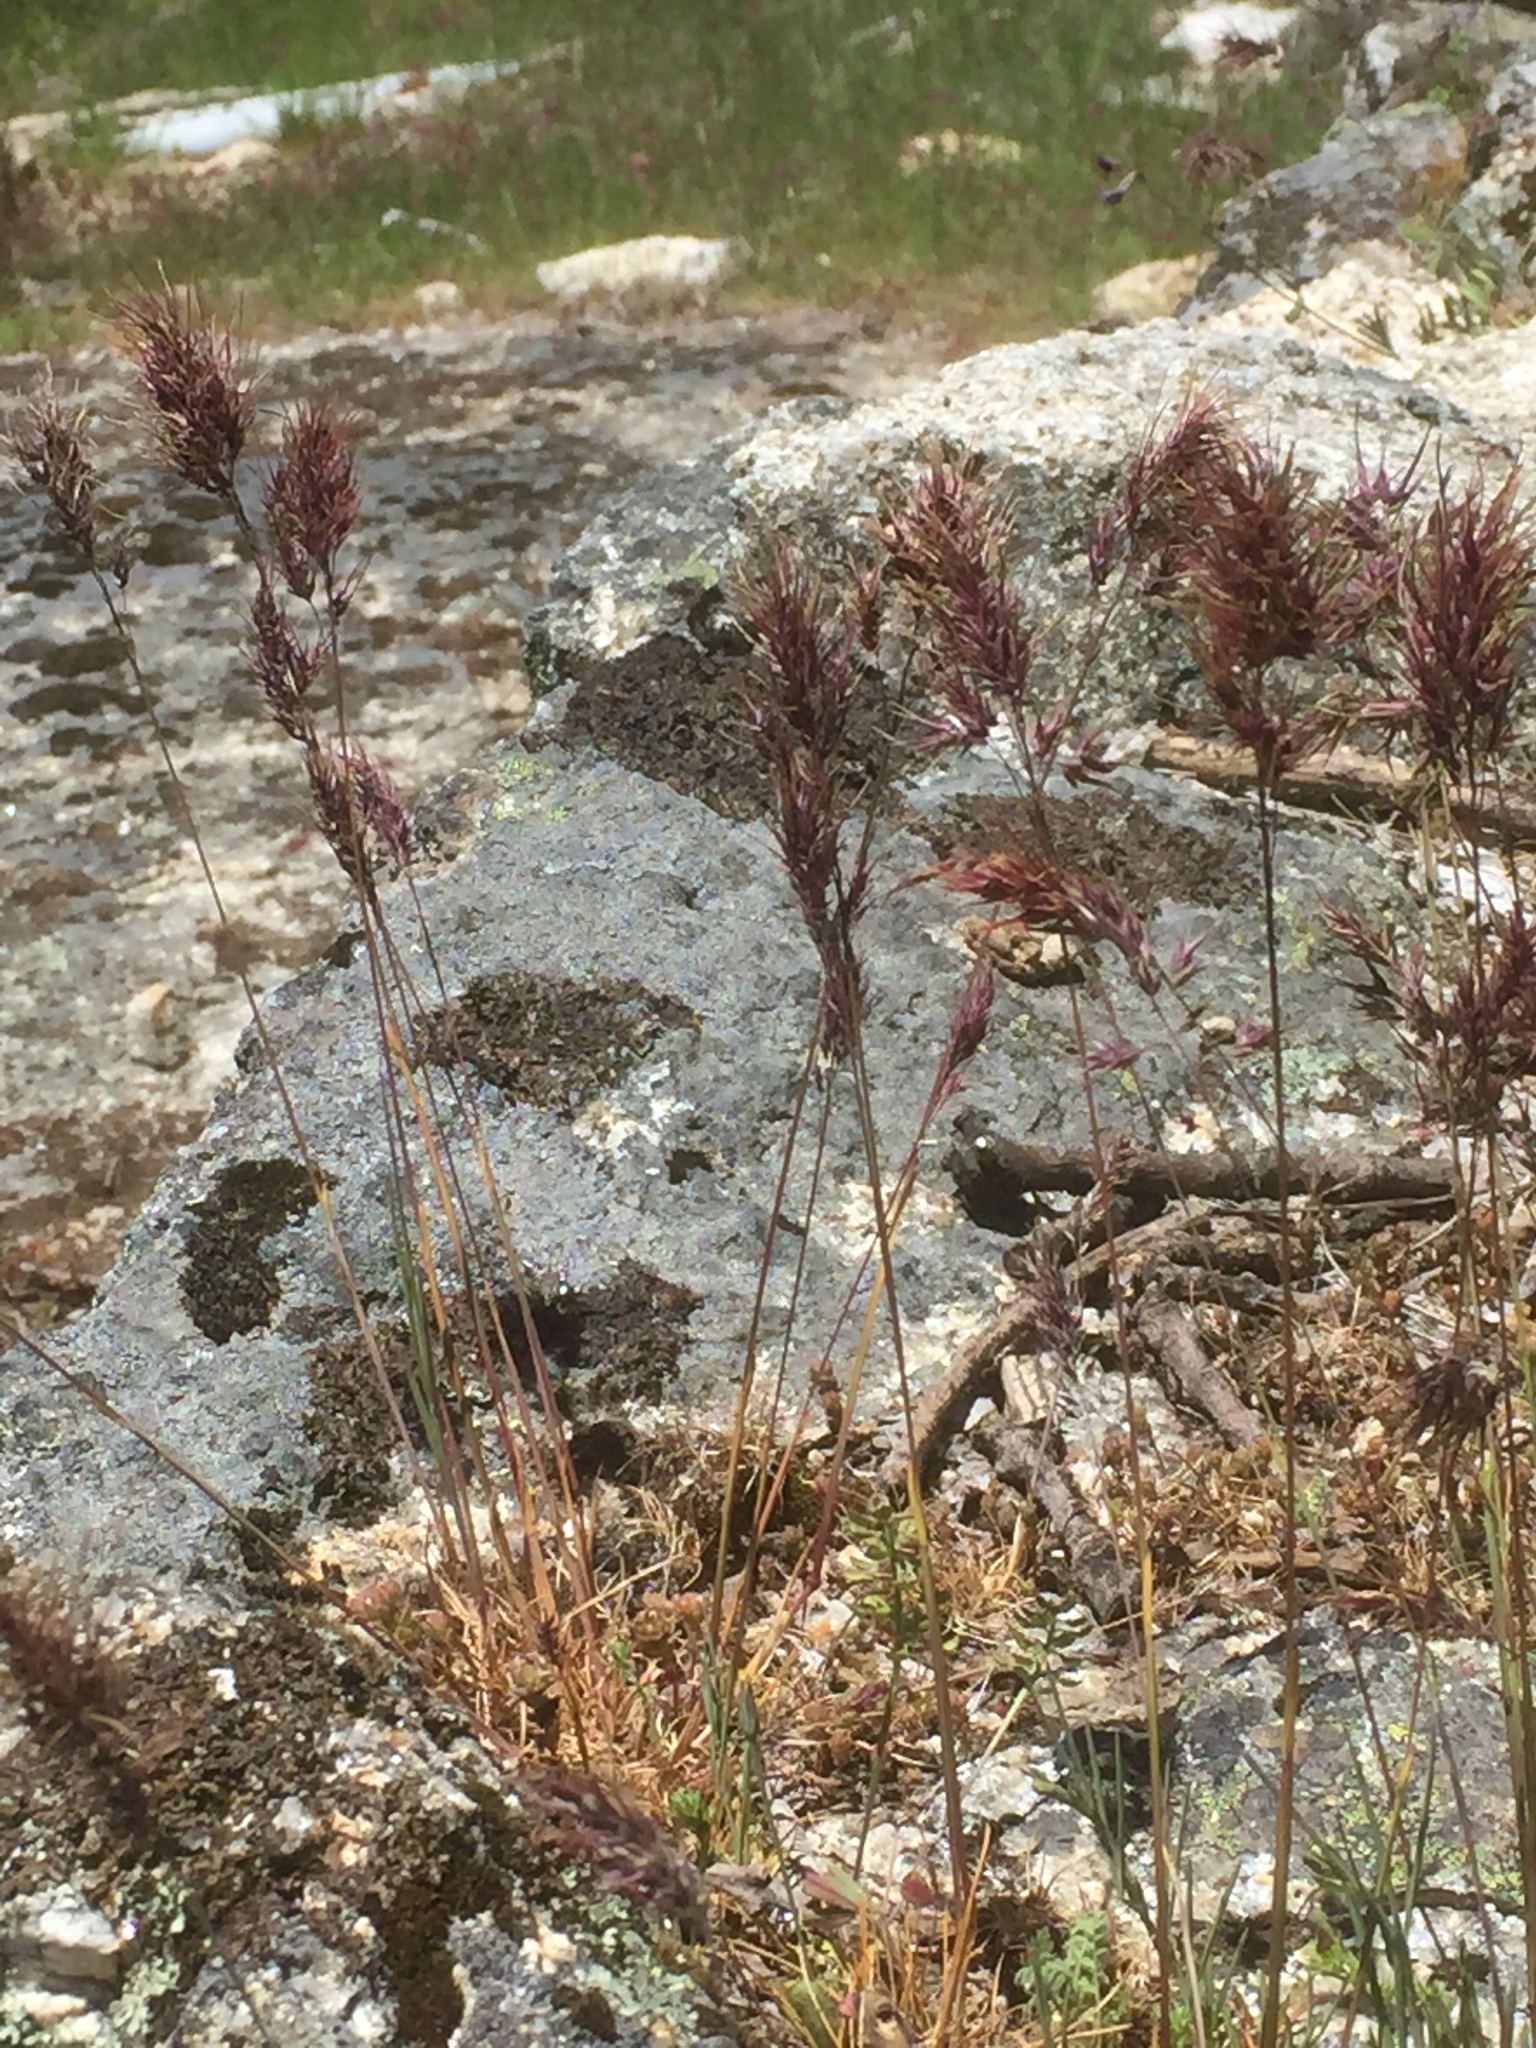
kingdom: Plantae
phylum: Tracheophyta
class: Liliopsida
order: Poales
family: Poaceae
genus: Poa
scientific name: Poa bulbosa
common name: Bulbous bluegrass
